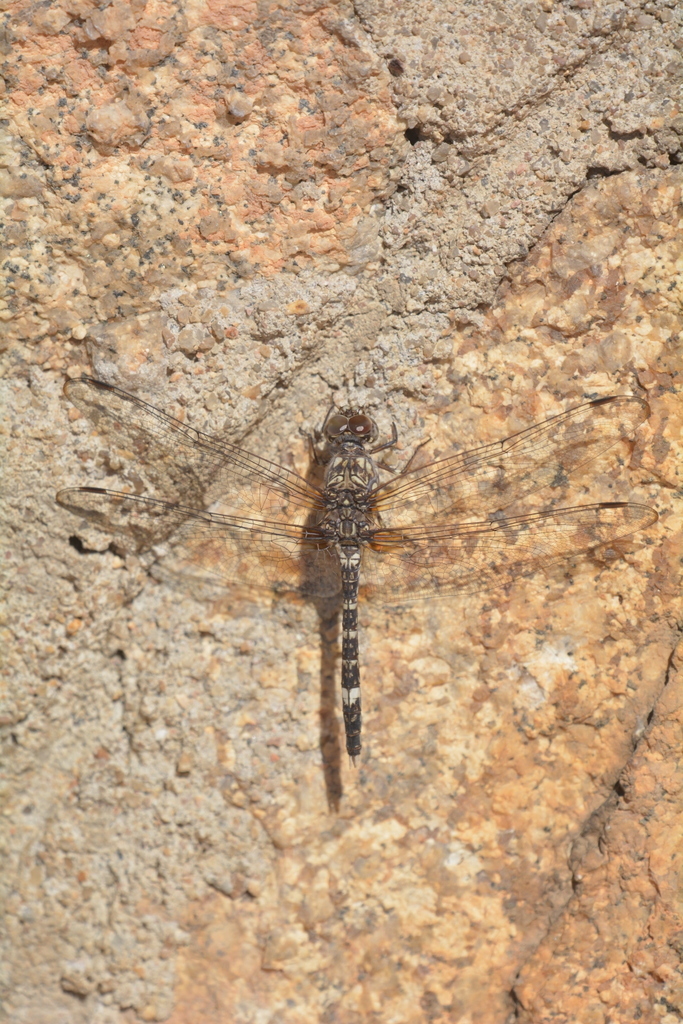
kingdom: Animalia
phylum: Arthropoda
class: Insecta
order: Odonata
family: Libellulidae
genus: Bradinopyga
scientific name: Bradinopyga cornuta
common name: Flecked wall-skimmer
